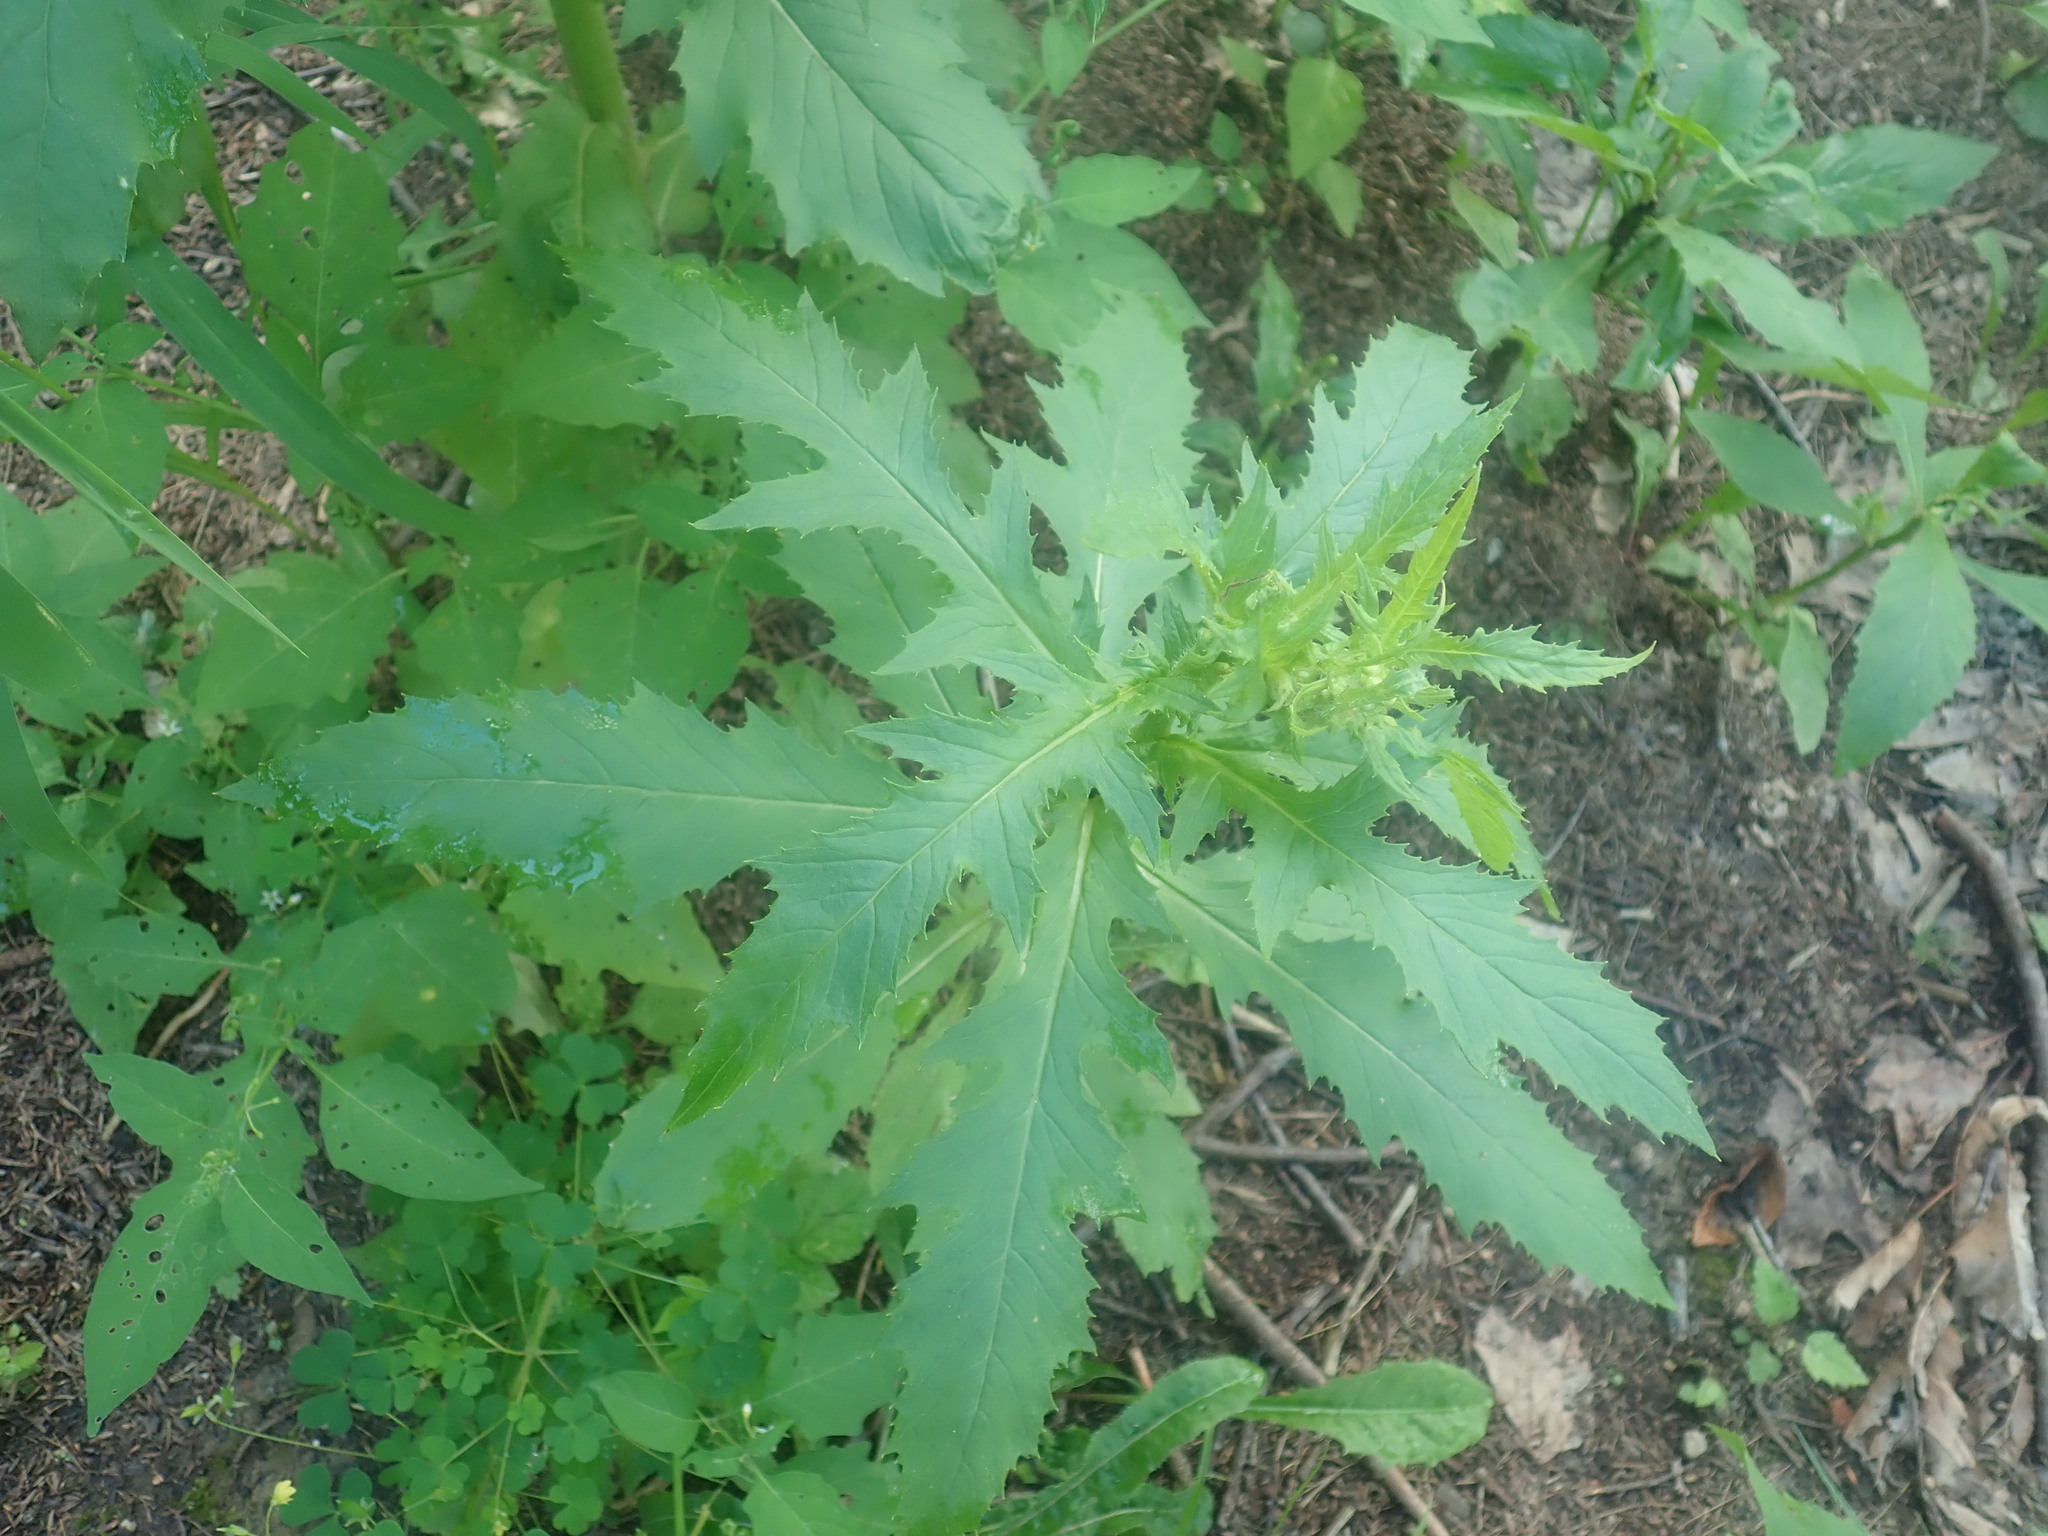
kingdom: Plantae
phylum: Tracheophyta
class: Magnoliopsida
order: Asterales
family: Asteraceae
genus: Erechtites
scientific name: Erechtites hieraciifolius
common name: American burnweed
